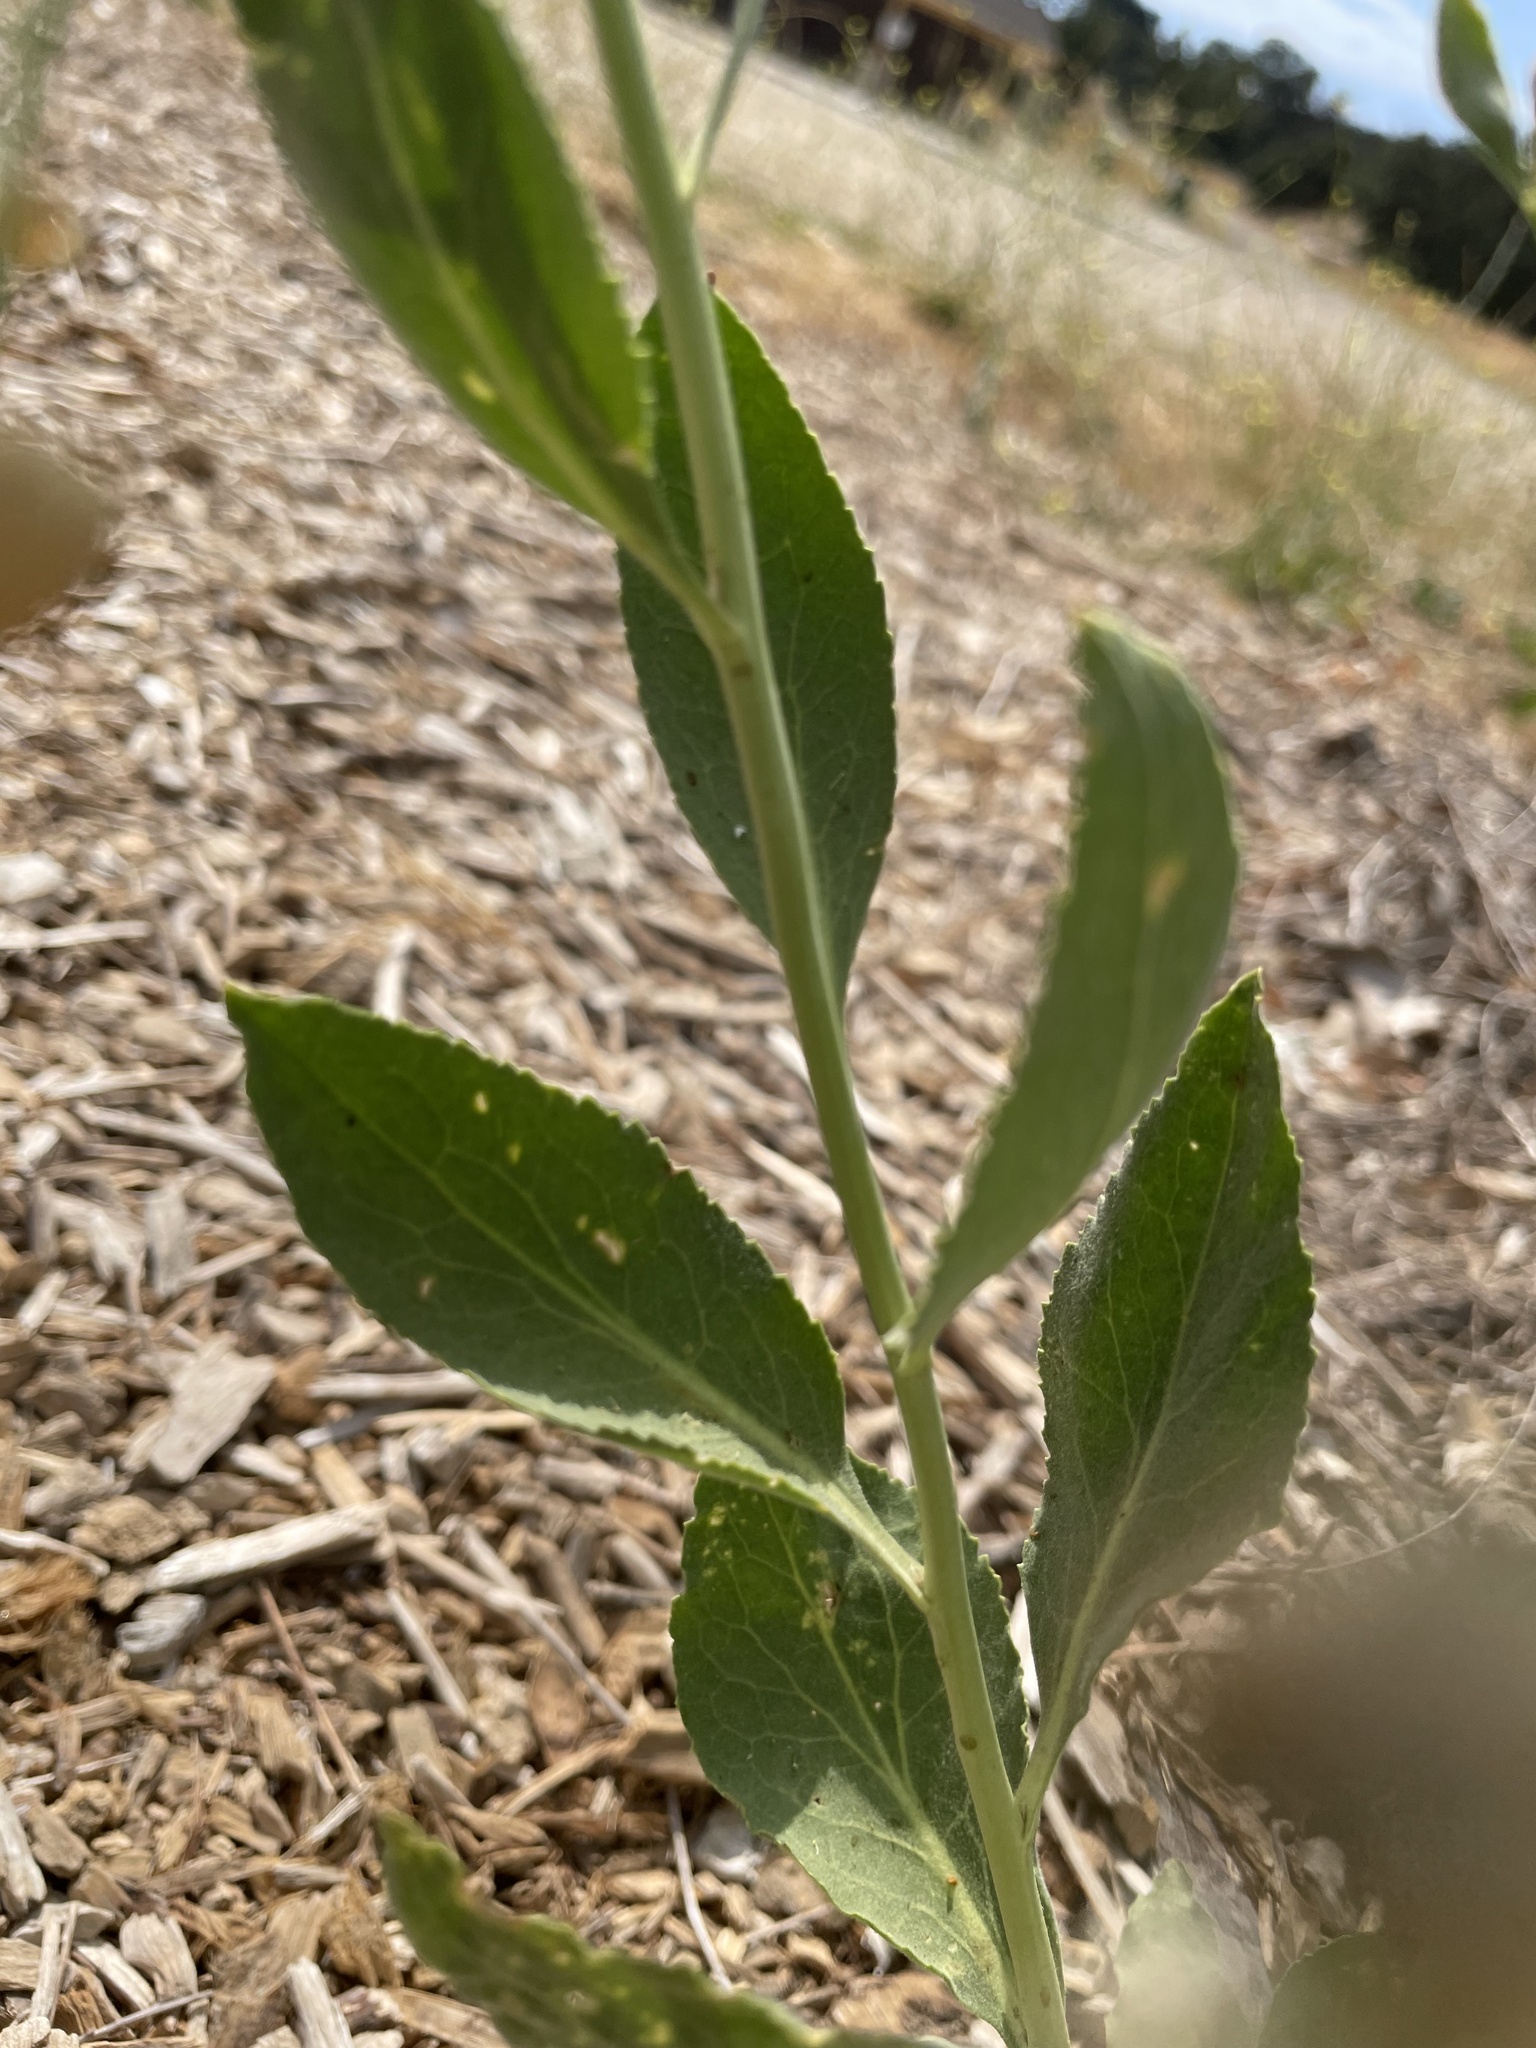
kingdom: Plantae
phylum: Tracheophyta
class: Magnoliopsida
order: Brassicales
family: Brassicaceae
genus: Lepidium
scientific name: Lepidium latifolium
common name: Dittander
